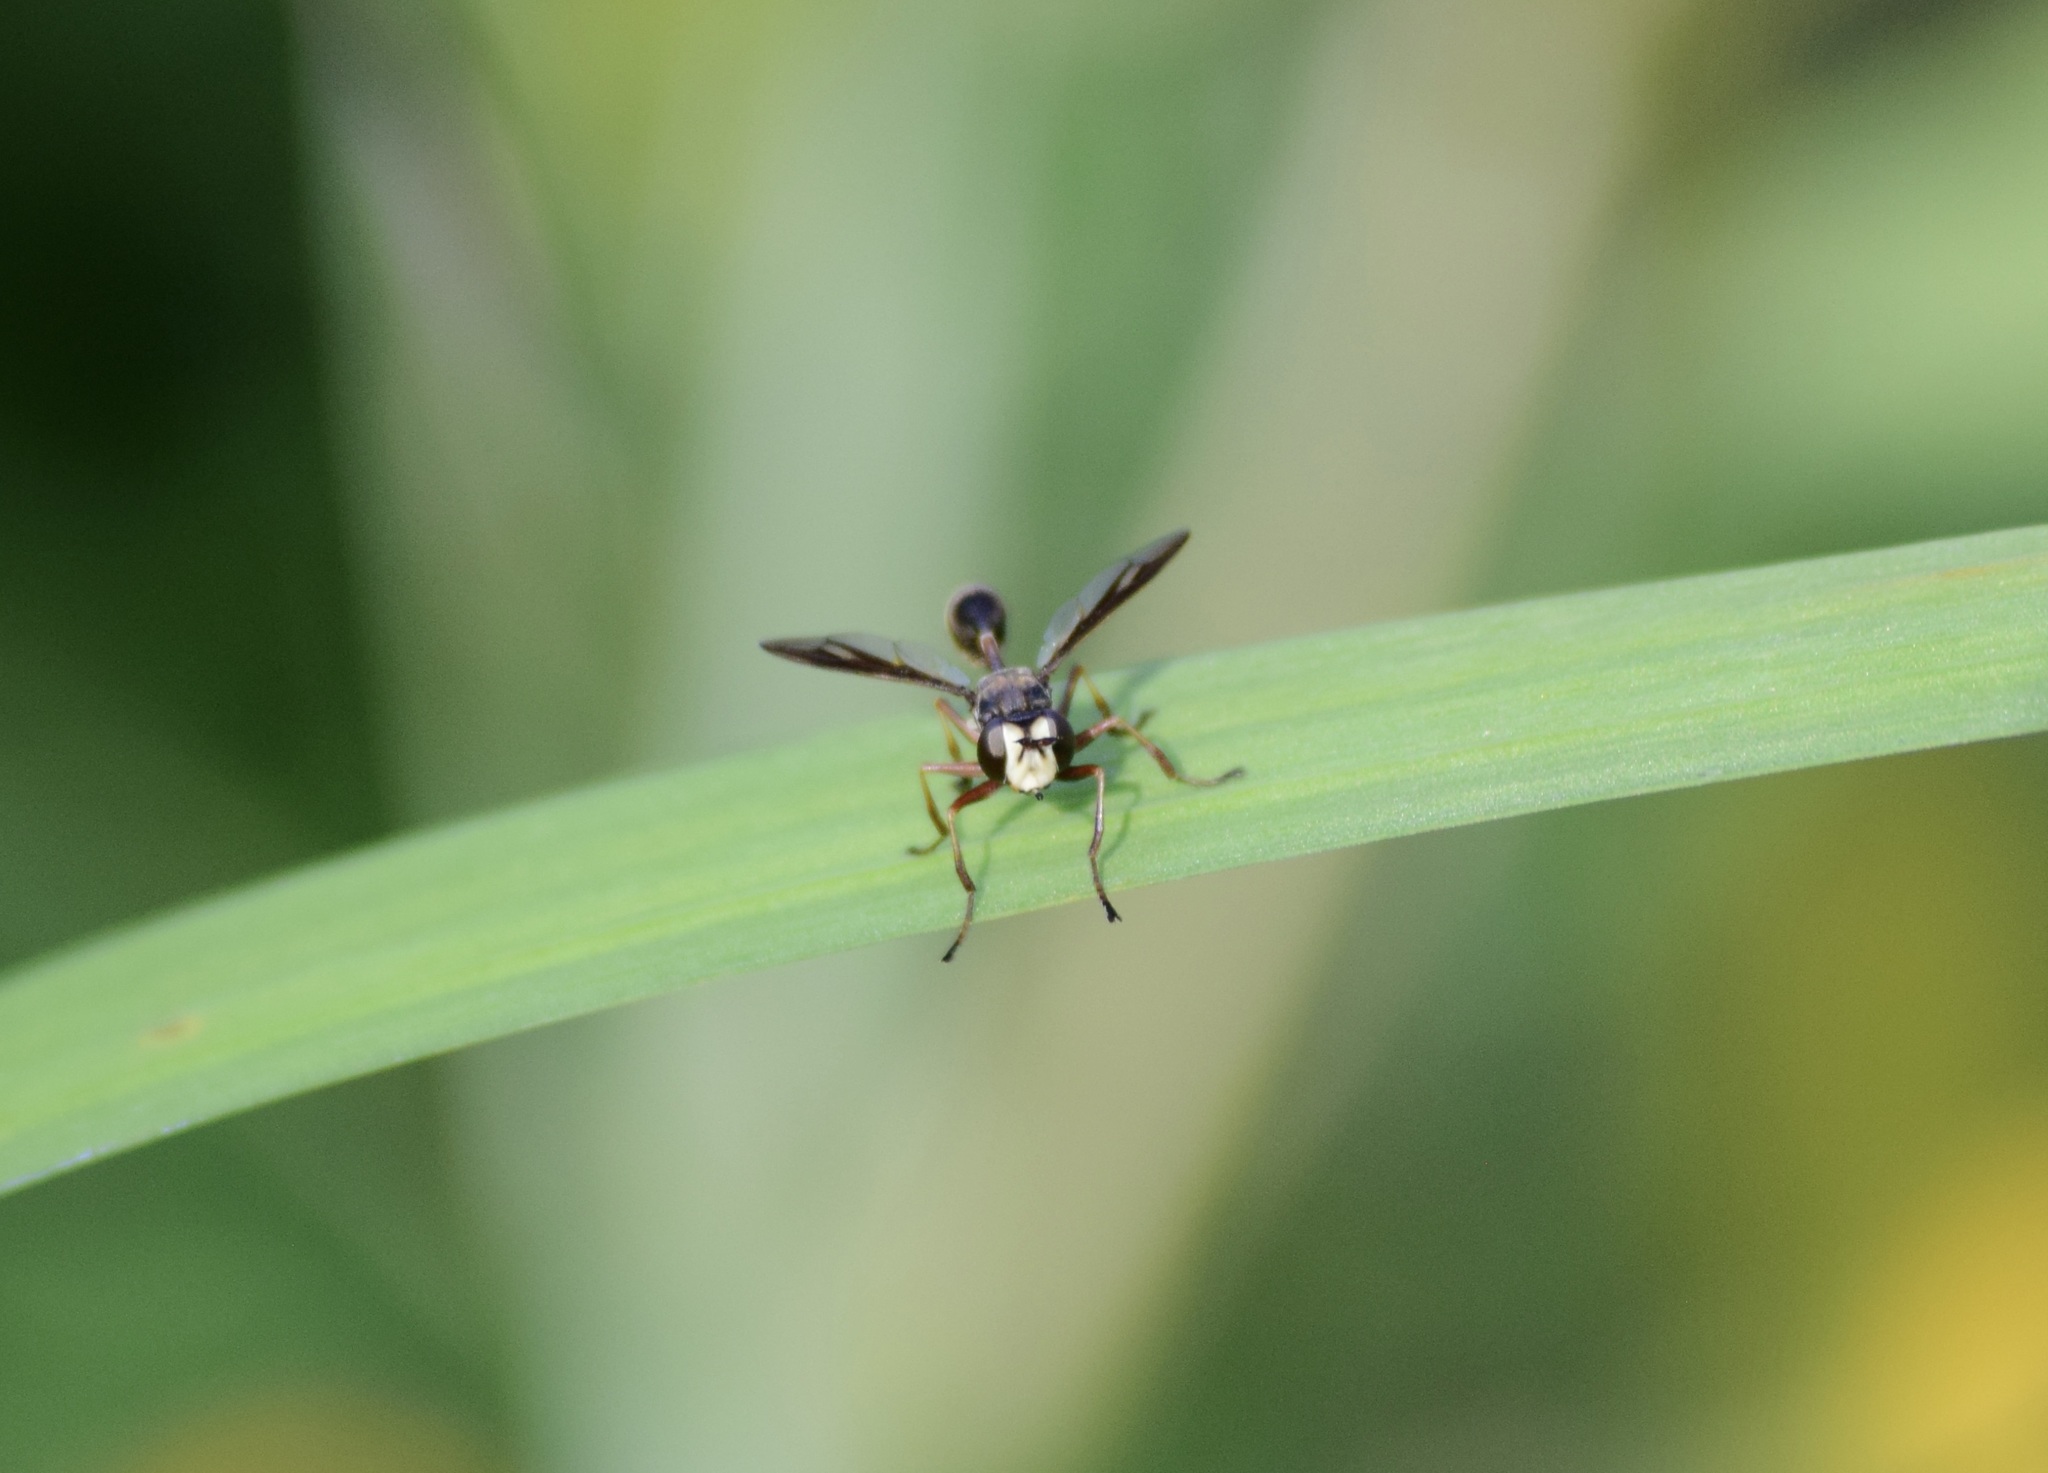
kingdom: Animalia
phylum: Arthropoda
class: Insecta
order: Diptera
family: Conopidae
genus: Physocephala
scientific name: Physocephala furcillata
